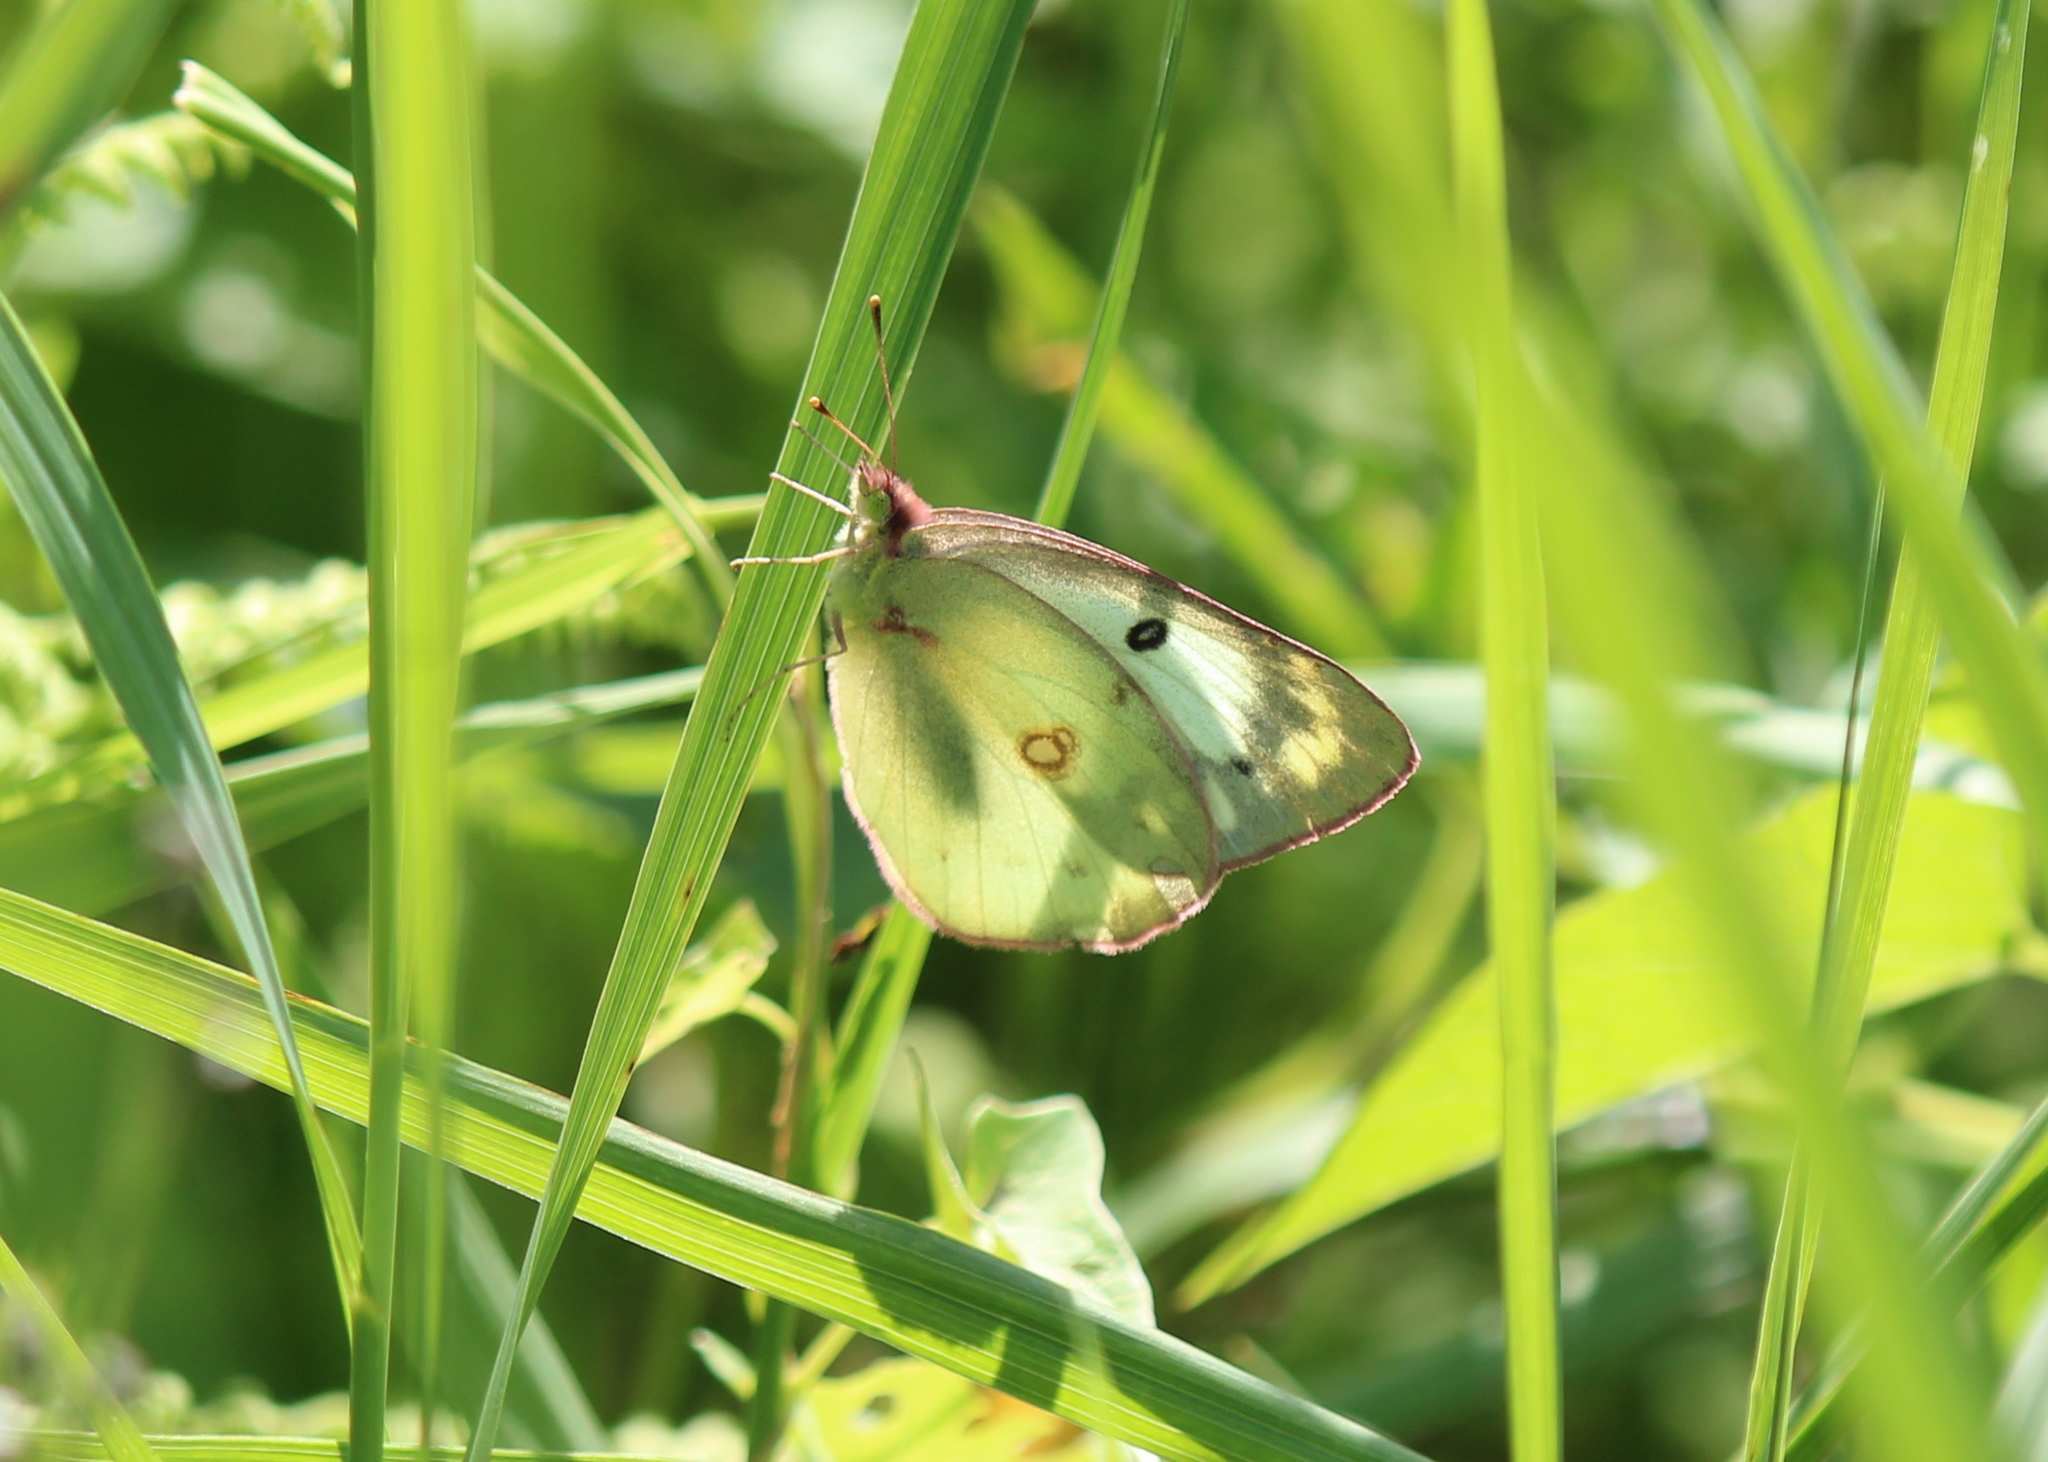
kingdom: Animalia
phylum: Arthropoda
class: Insecta
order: Lepidoptera
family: Pieridae
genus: Colias
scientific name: Colias philodice
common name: Clouded sulphur
